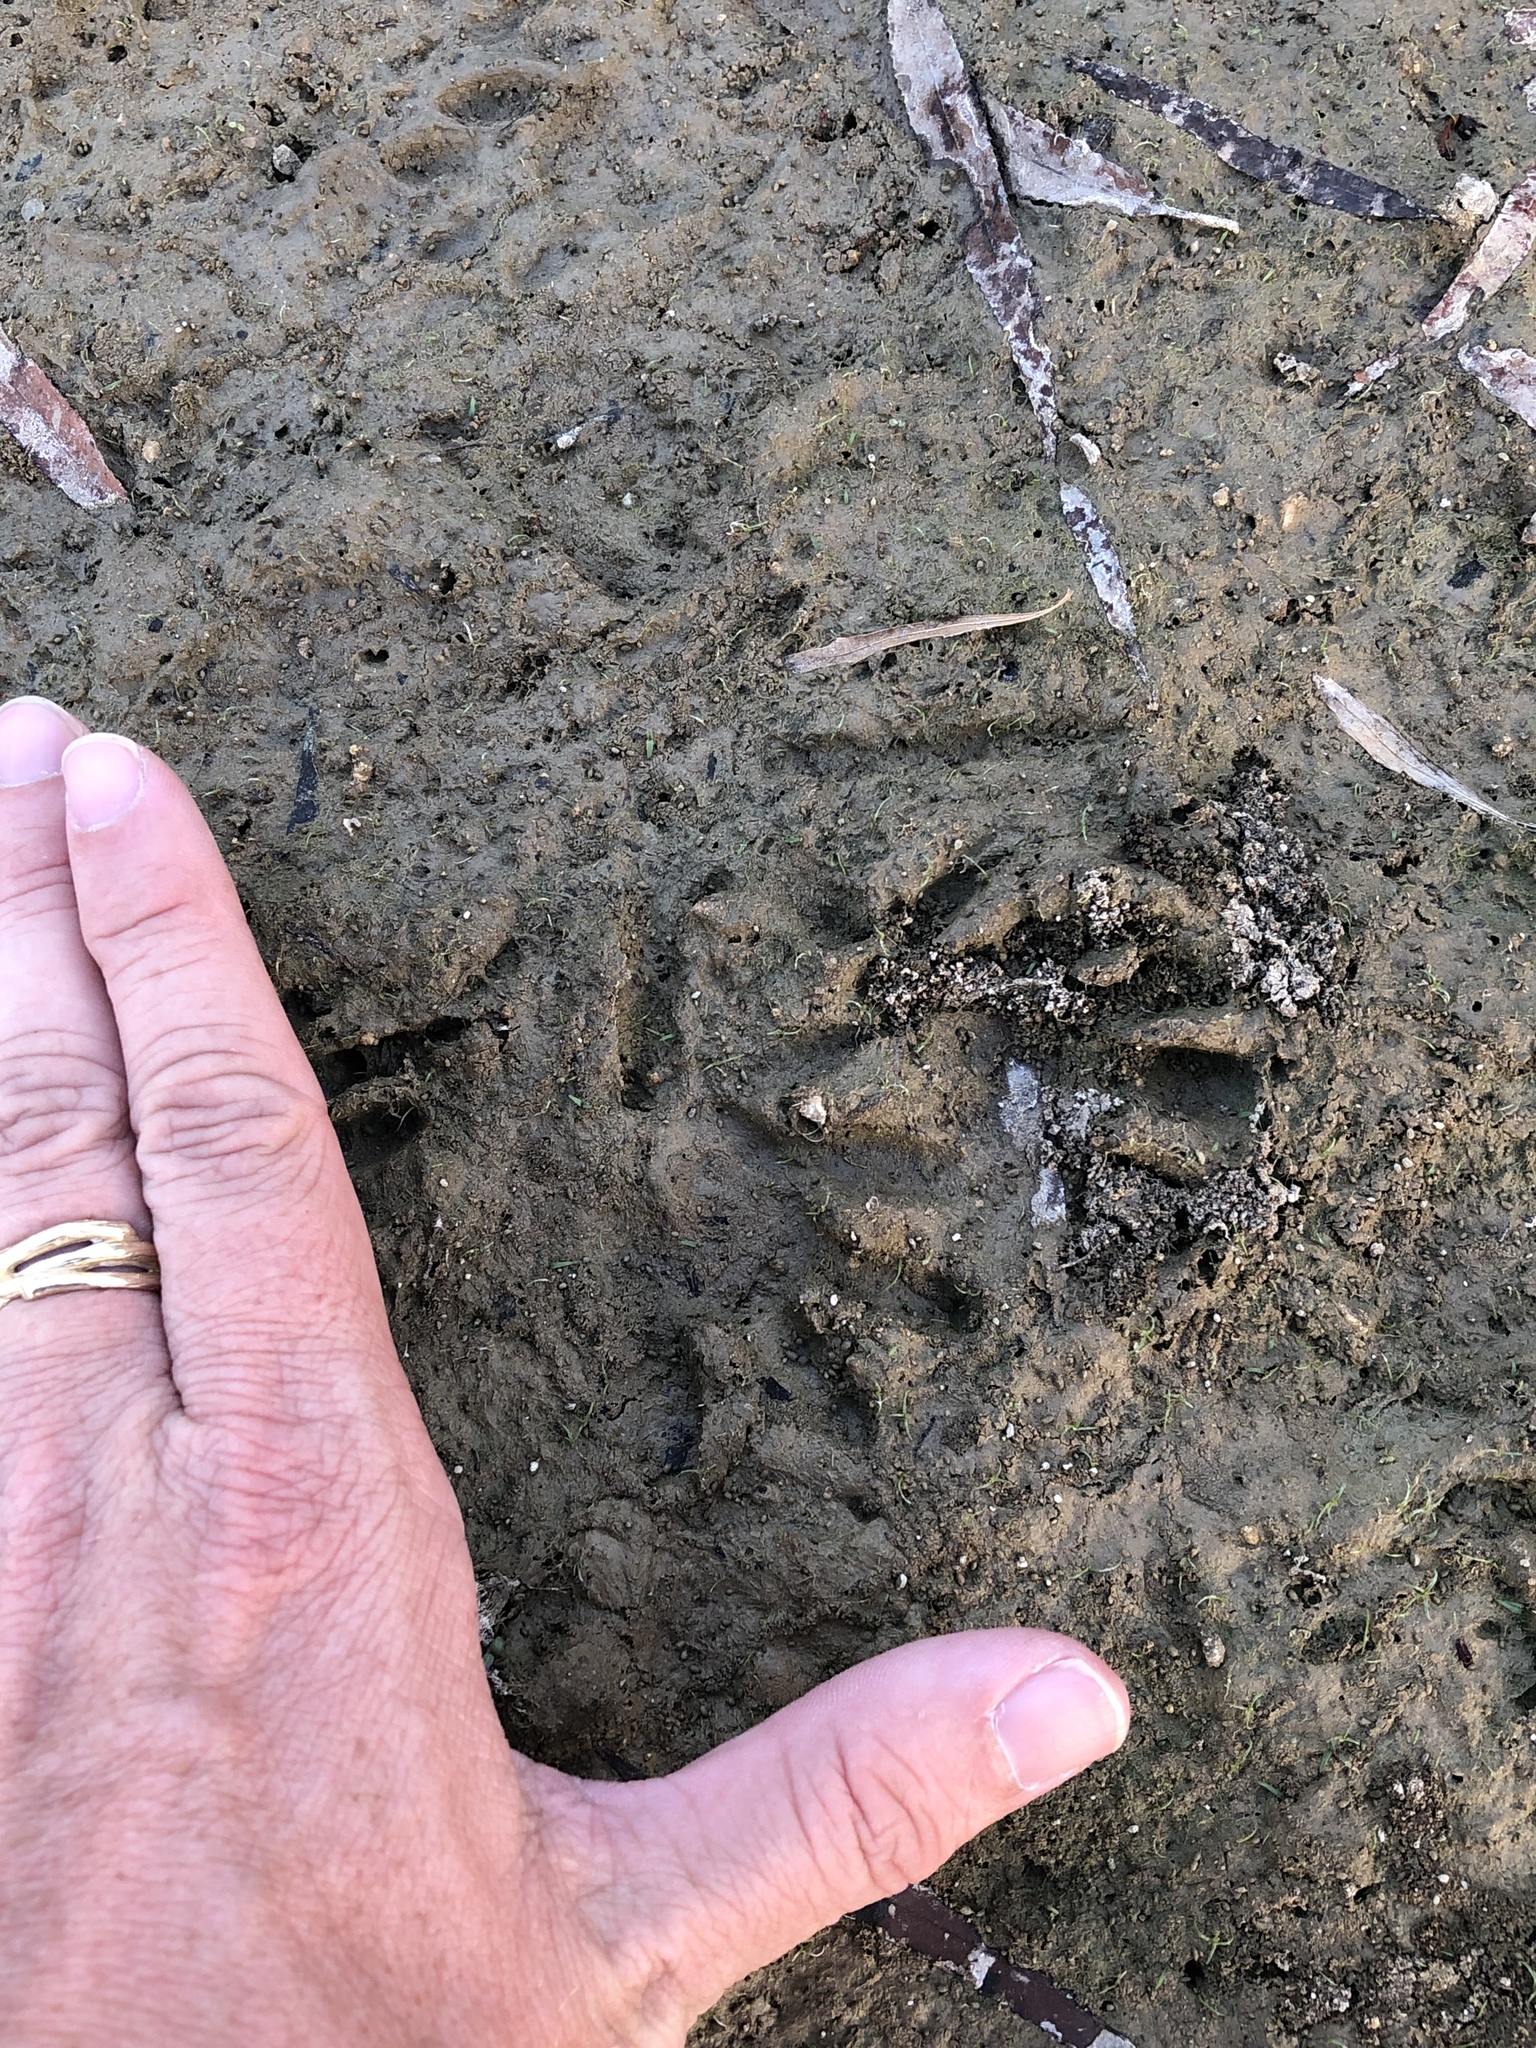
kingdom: Animalia
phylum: Chordata
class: Mammalia
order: Carnivora
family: Procyonidae
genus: Procyon
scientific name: Procyon lotor
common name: Raccoon
